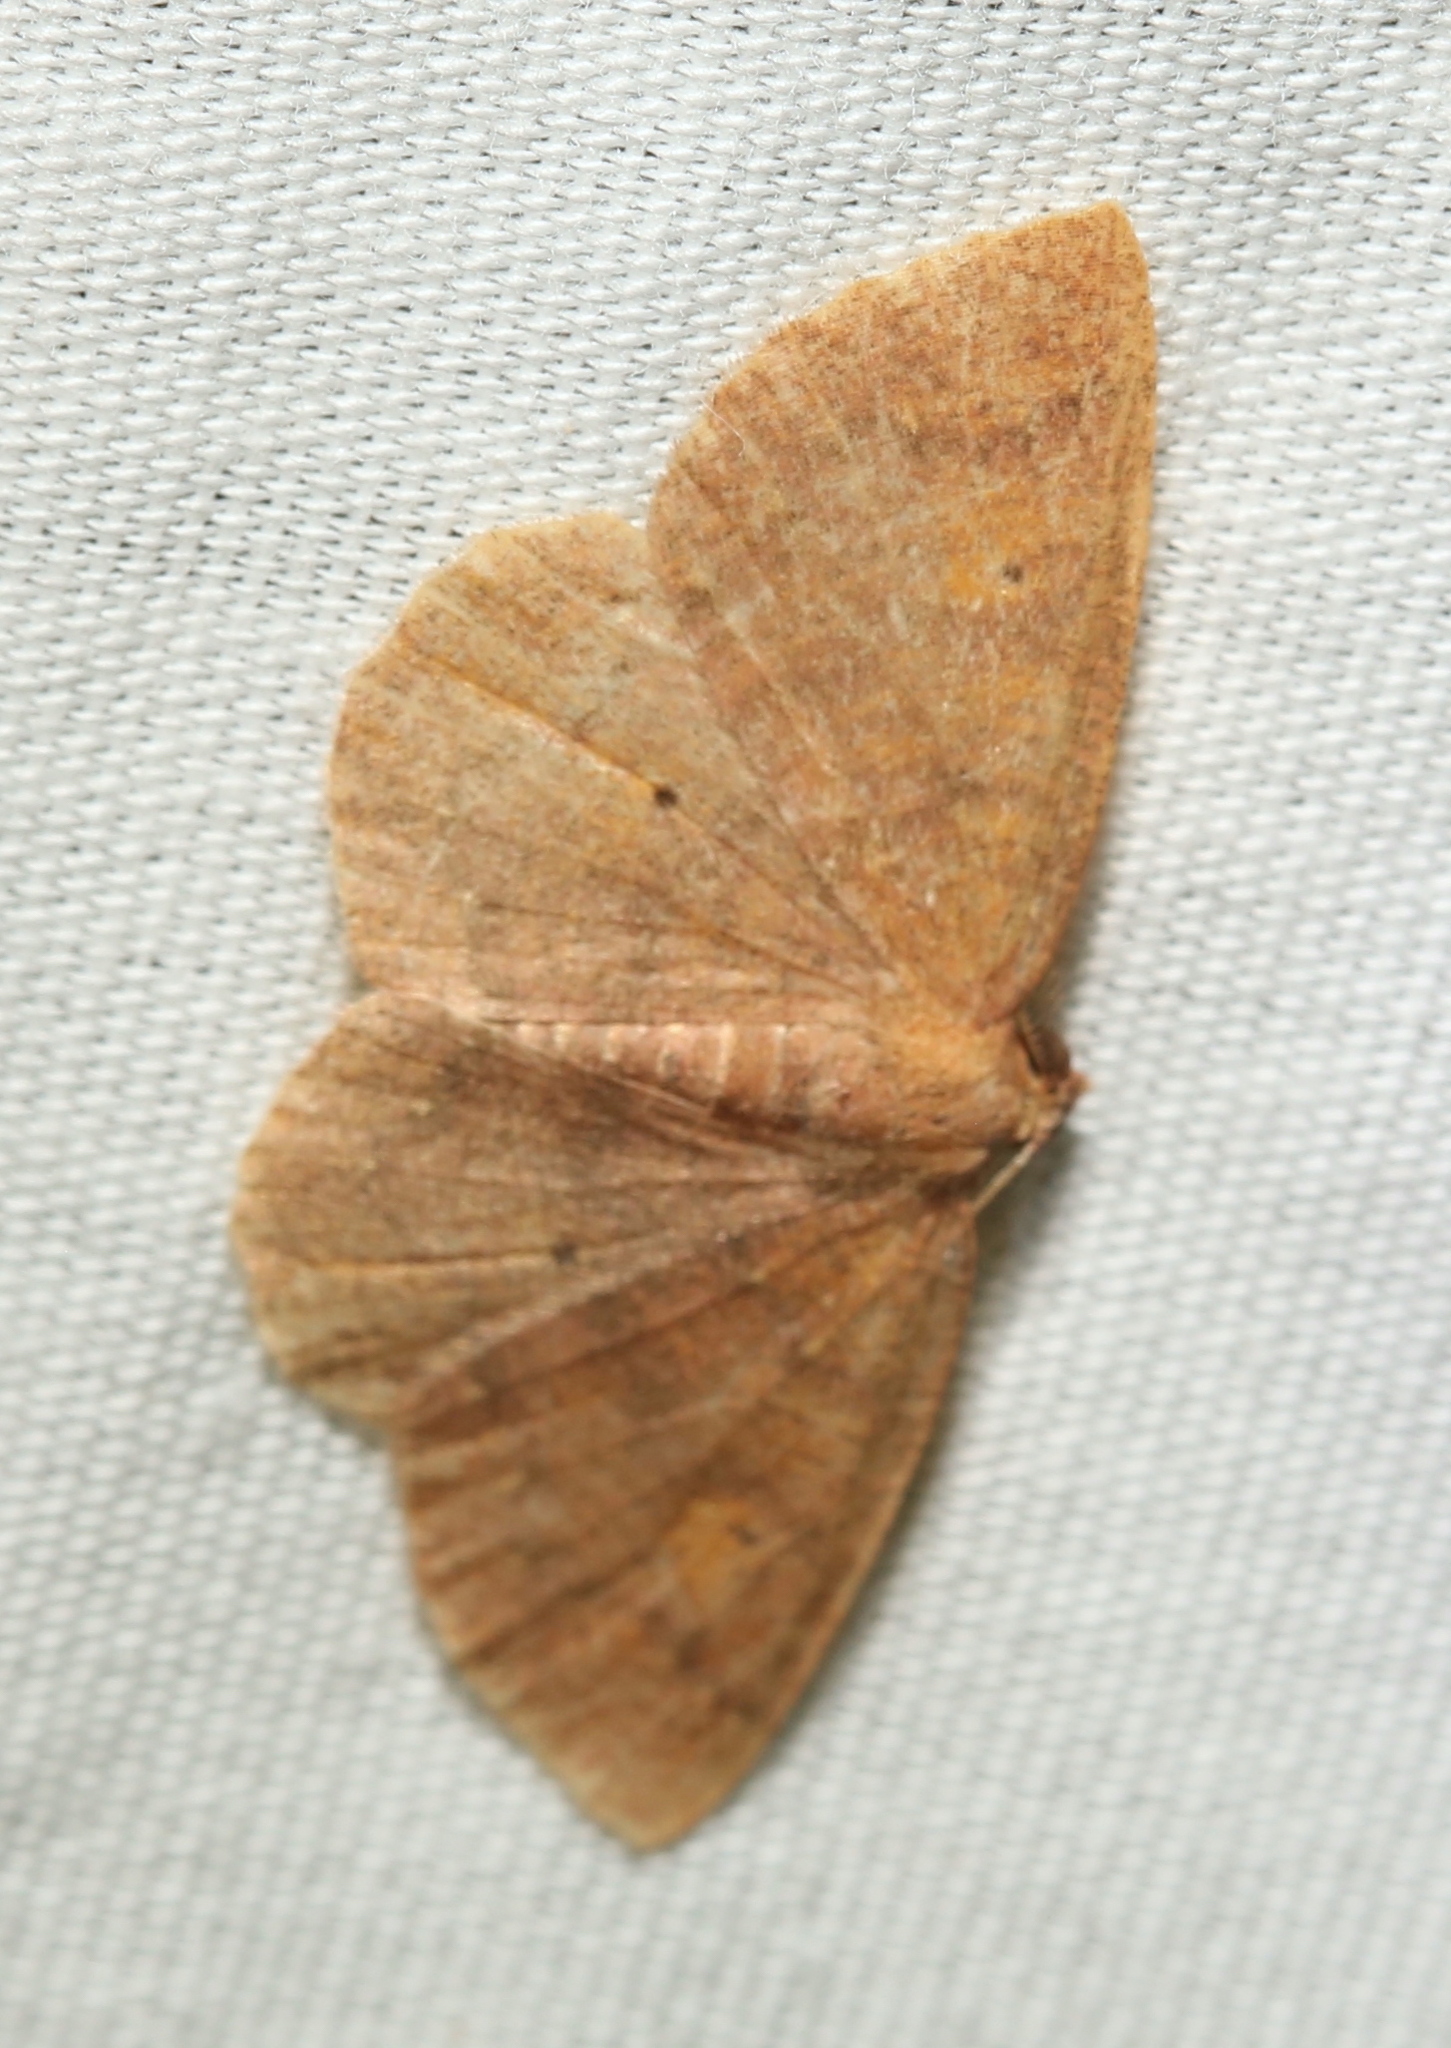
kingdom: Animalia
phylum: Arthropoda
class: Insecta
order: Lepidoptera
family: Geometridae
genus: Ilexia
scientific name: Ilexia intractata
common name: Black-dotted ruddy moth
